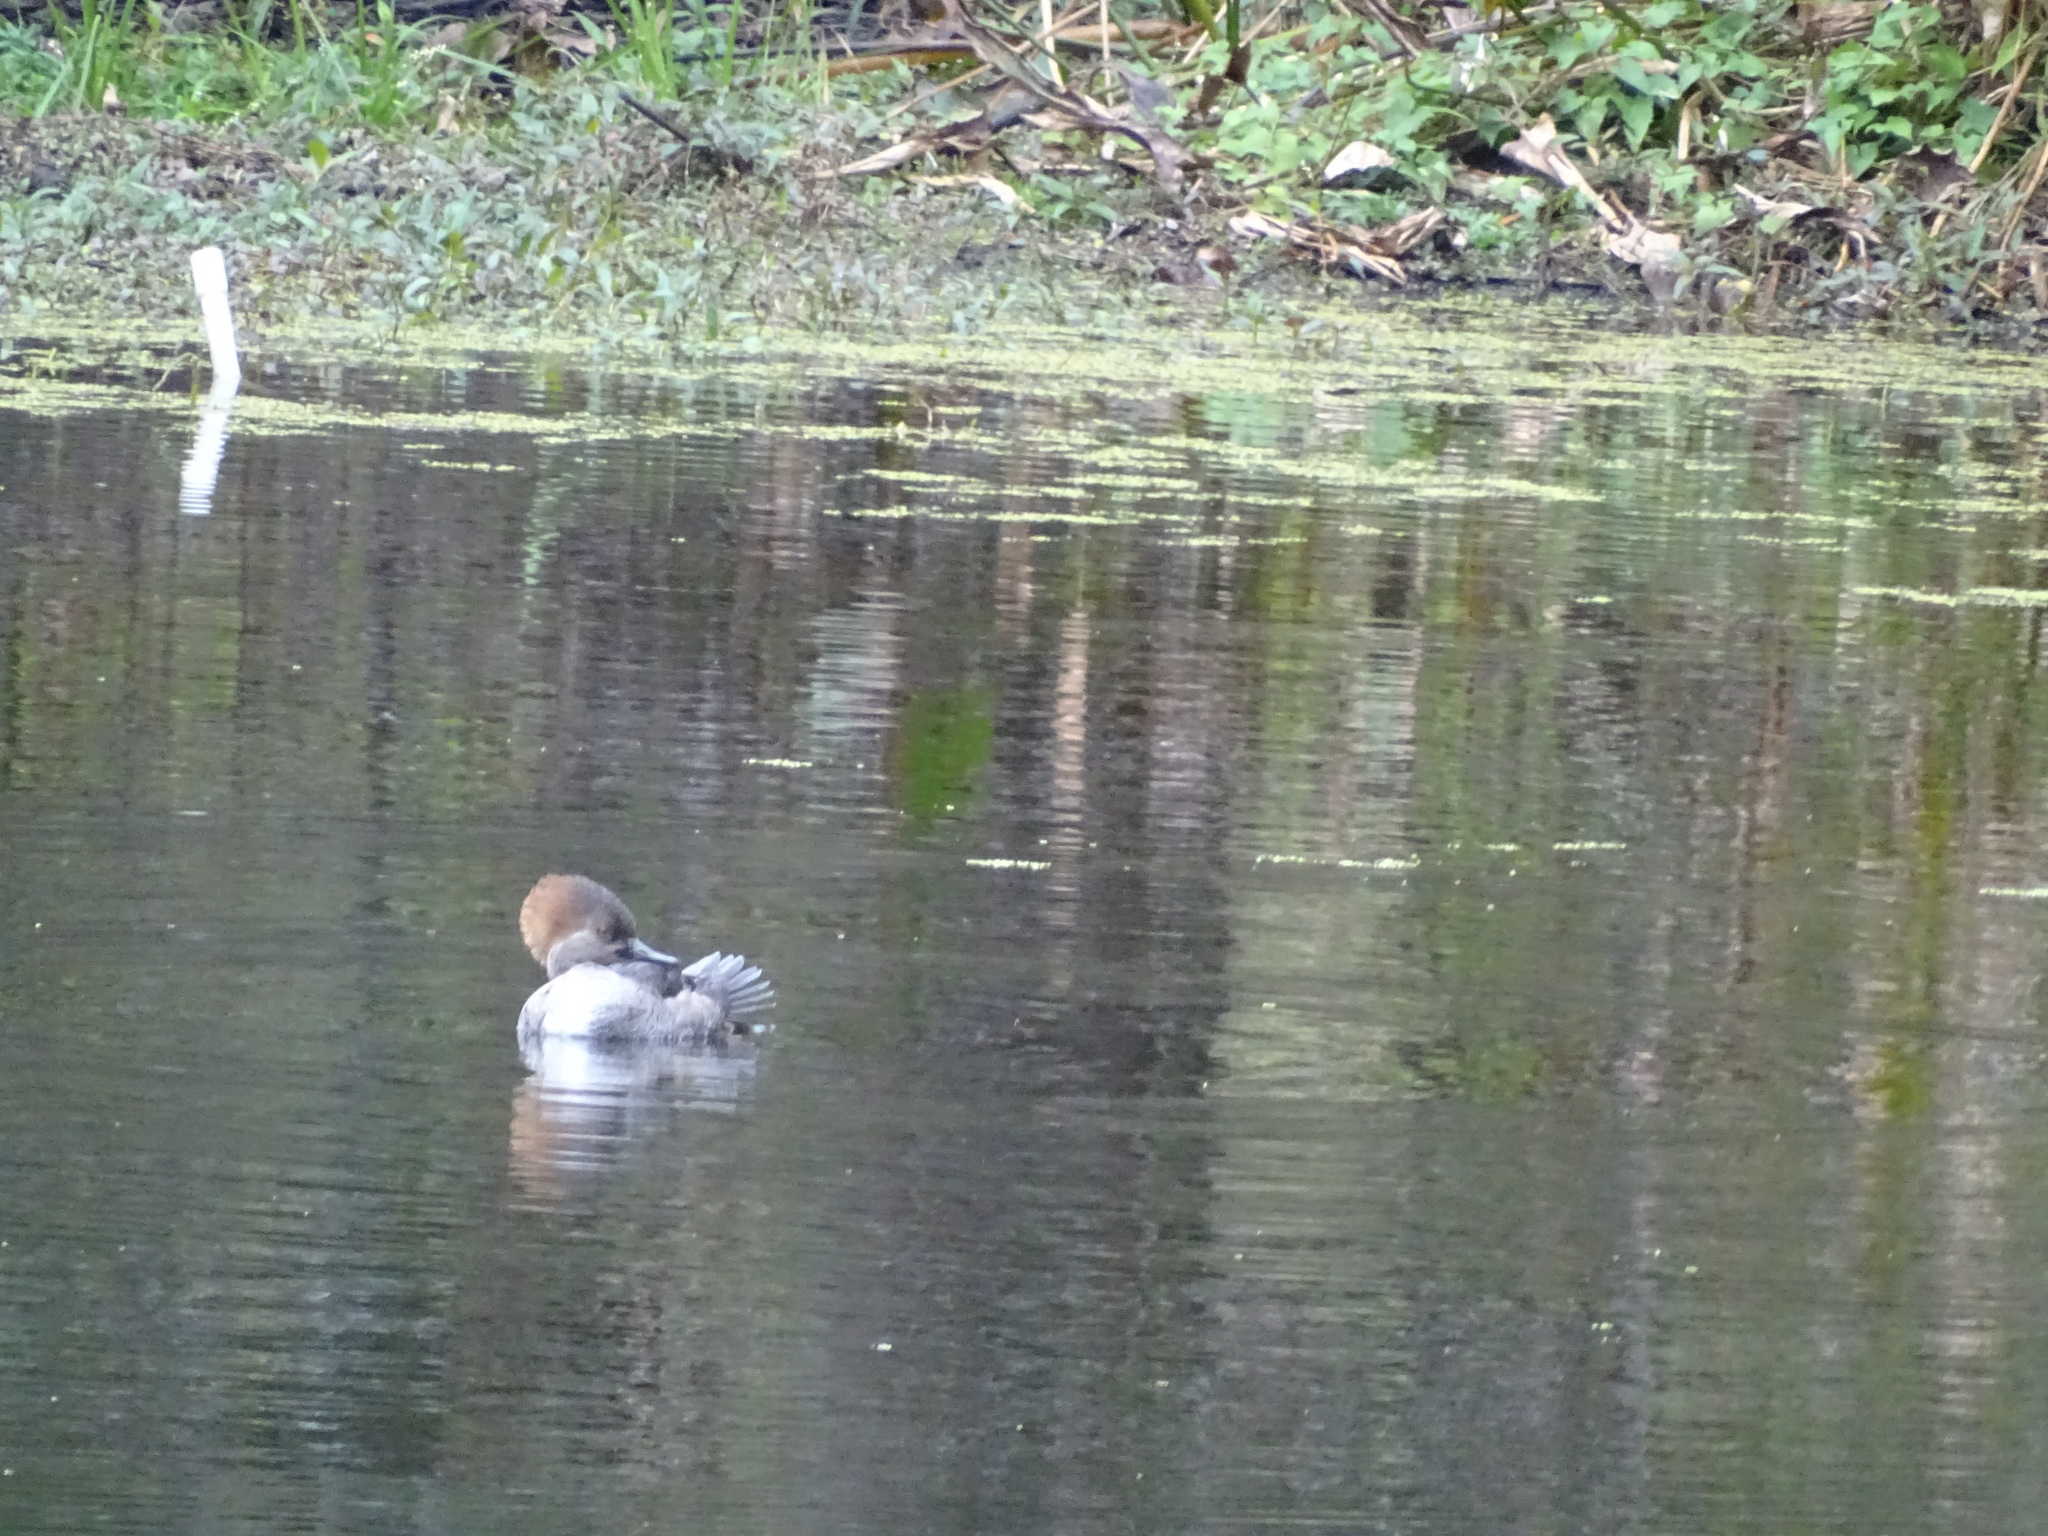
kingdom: Animalia
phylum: Chordata
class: Aves
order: Anseriformes
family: Anatidae
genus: Lophodytes
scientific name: Lophodytes cucullatus
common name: Hooded merganser
